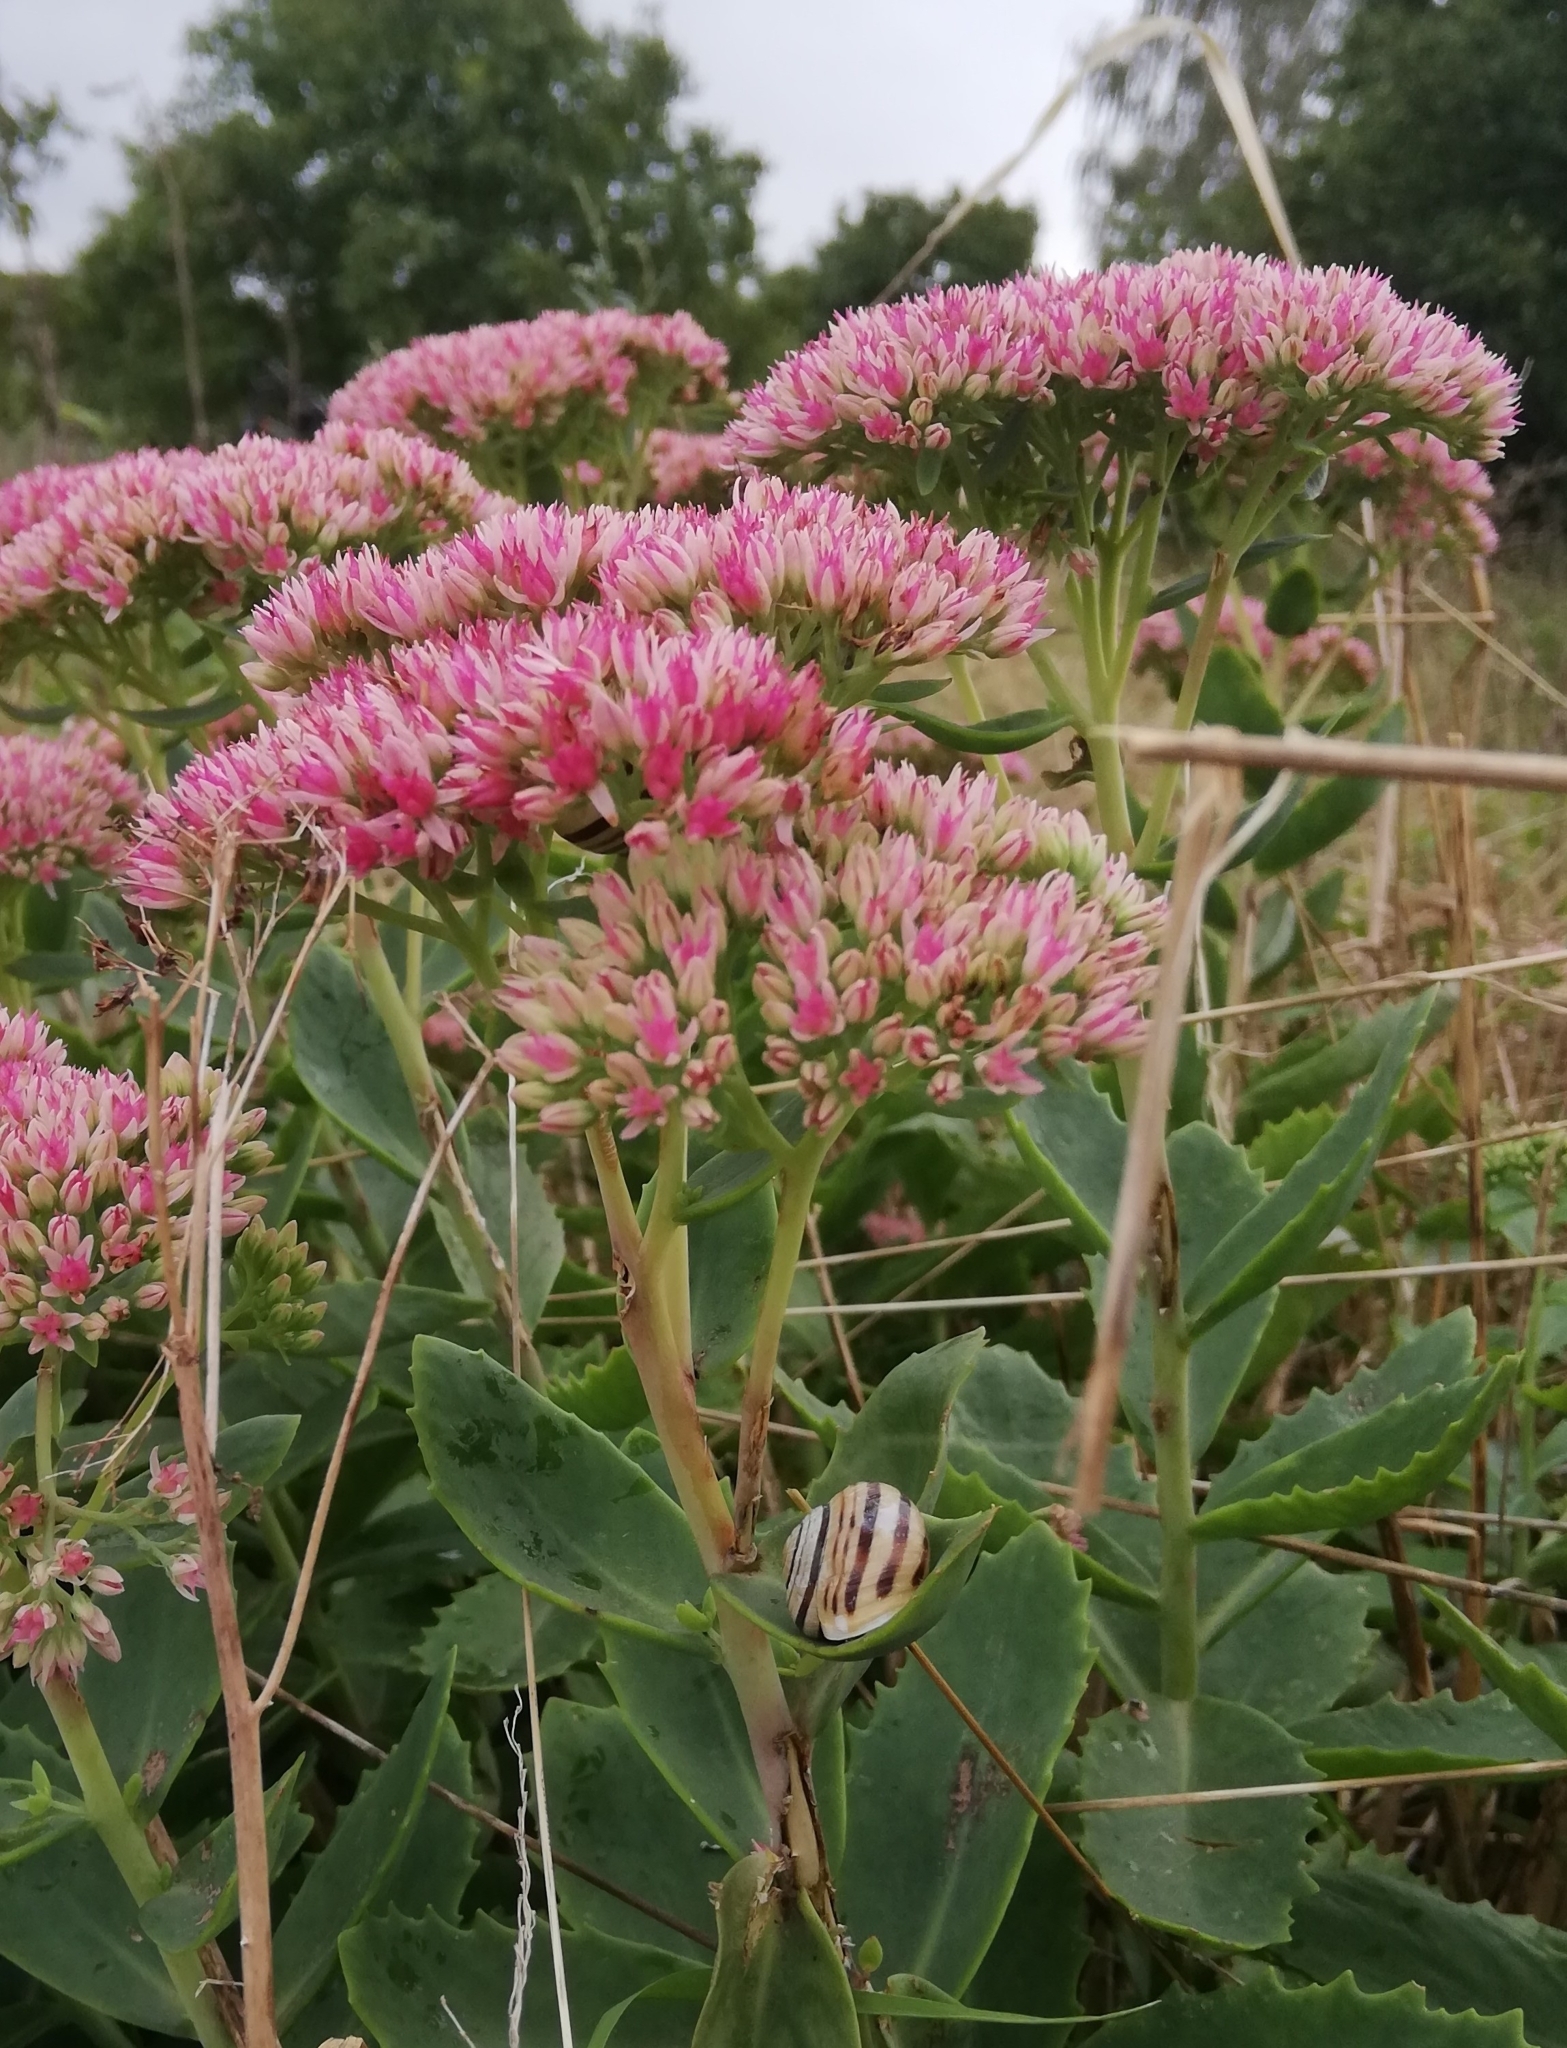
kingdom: Animalia
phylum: Mollusca
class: Gastropoda
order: Stylommatophora
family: Helicidae
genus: Cepaea
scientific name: Cepaea hortensis
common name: White-lip gardensnail
